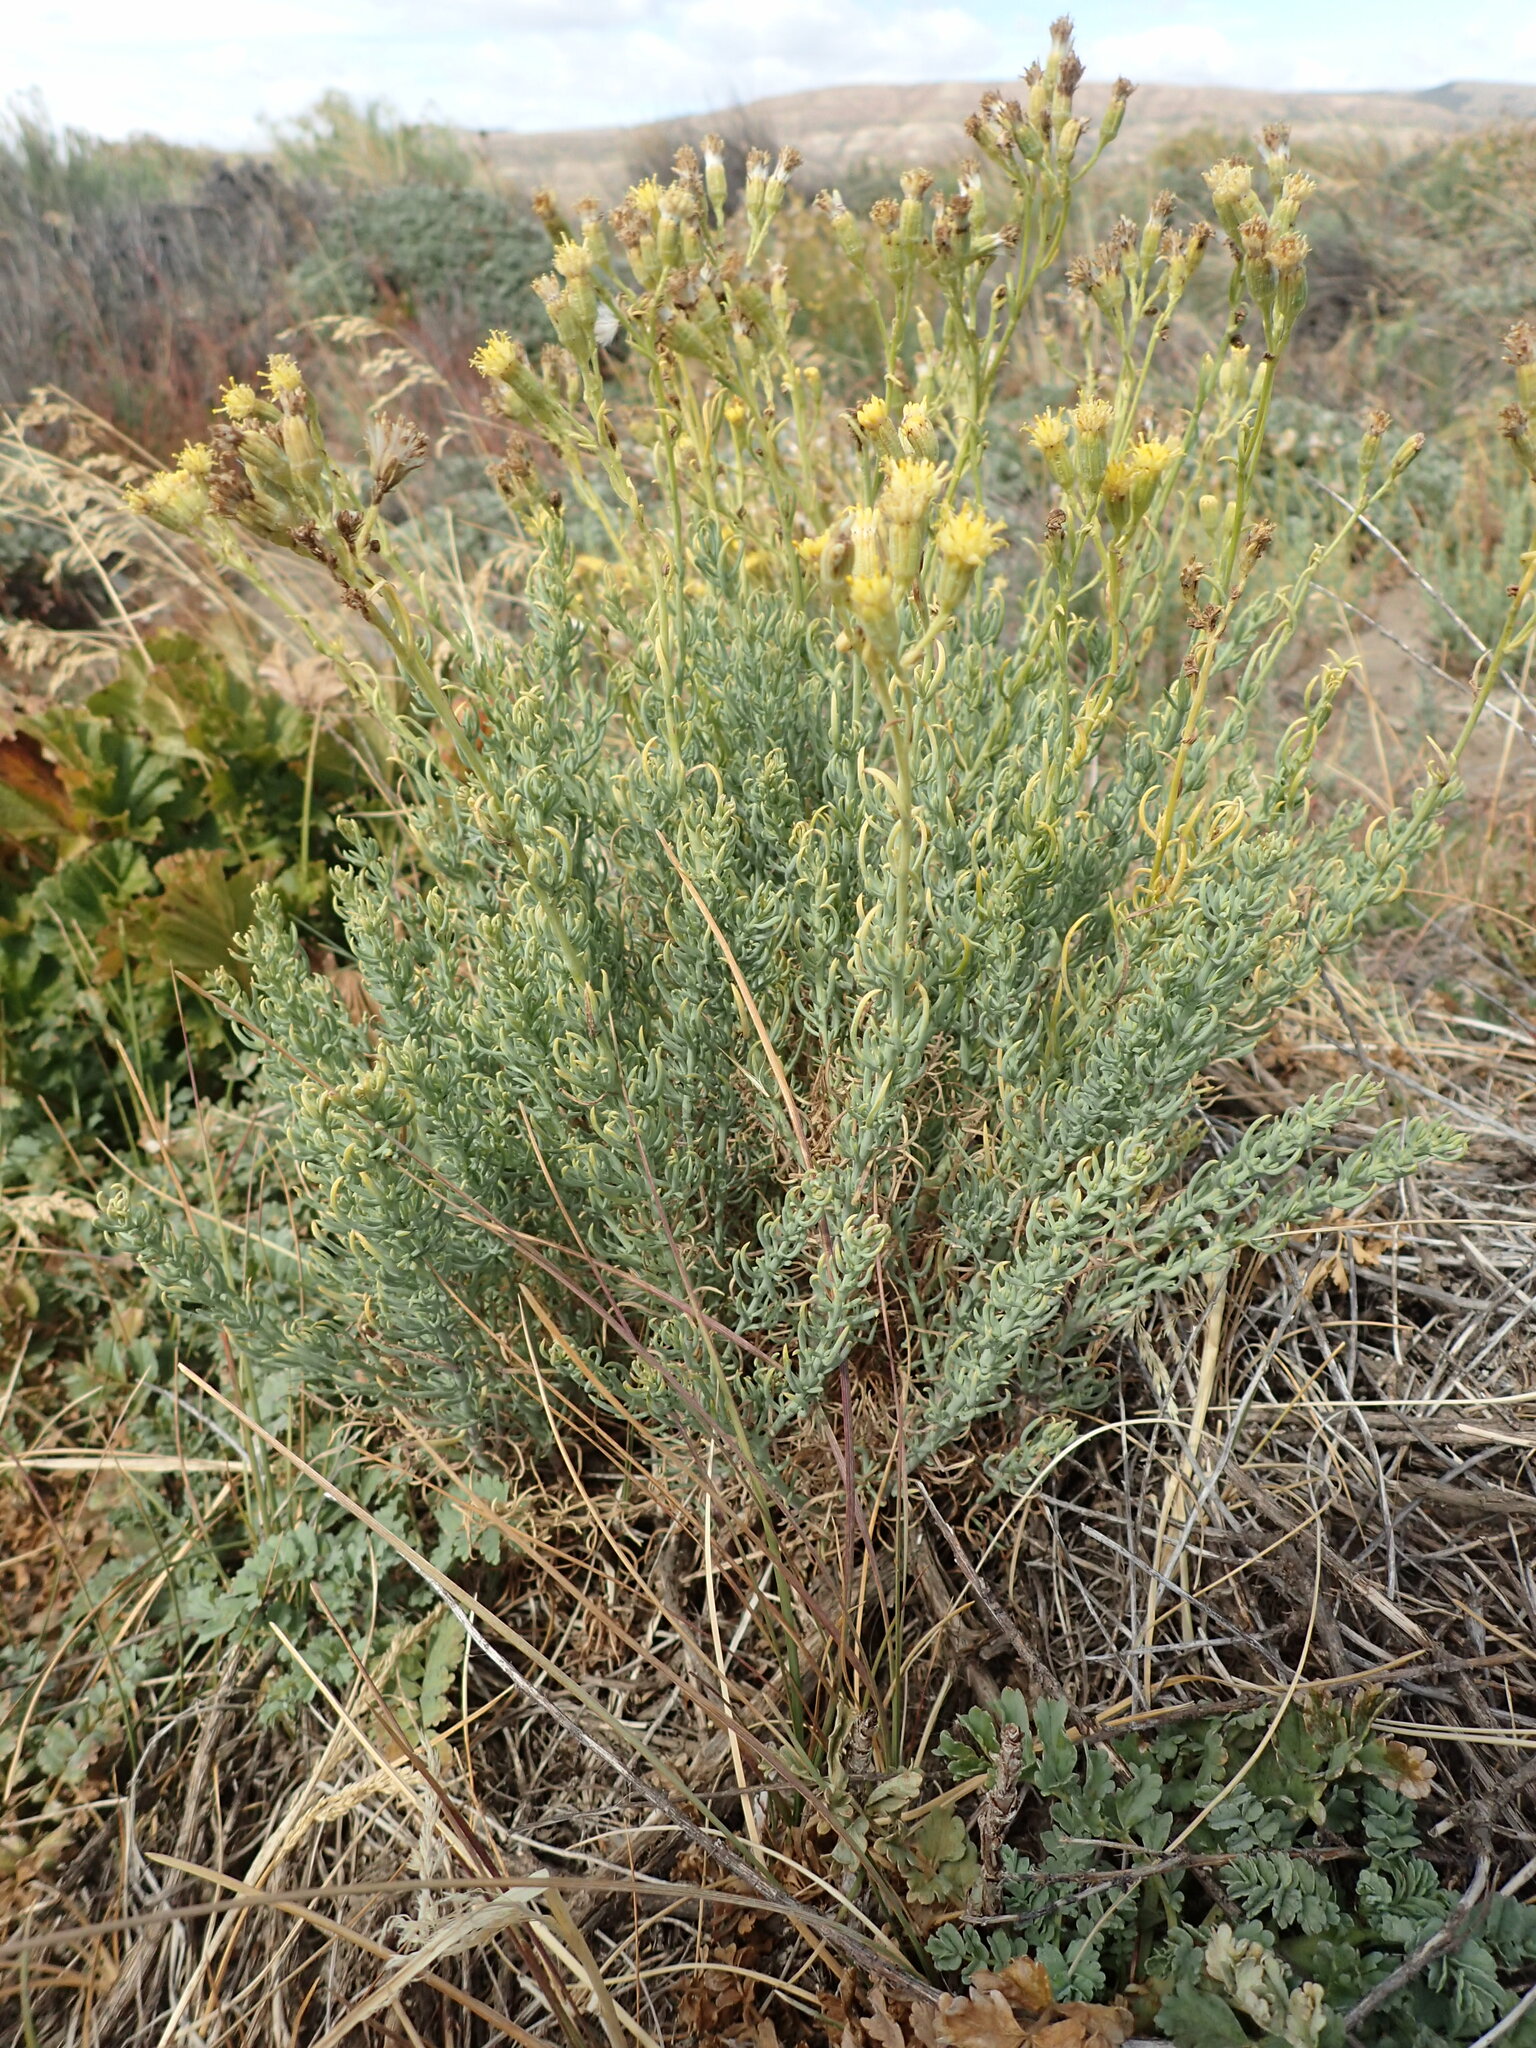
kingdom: Plantae
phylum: Tracheophyta
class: Magnoliopsida
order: Asterales
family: Asteraceae
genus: Senecio
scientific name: Senecio filaginoides
